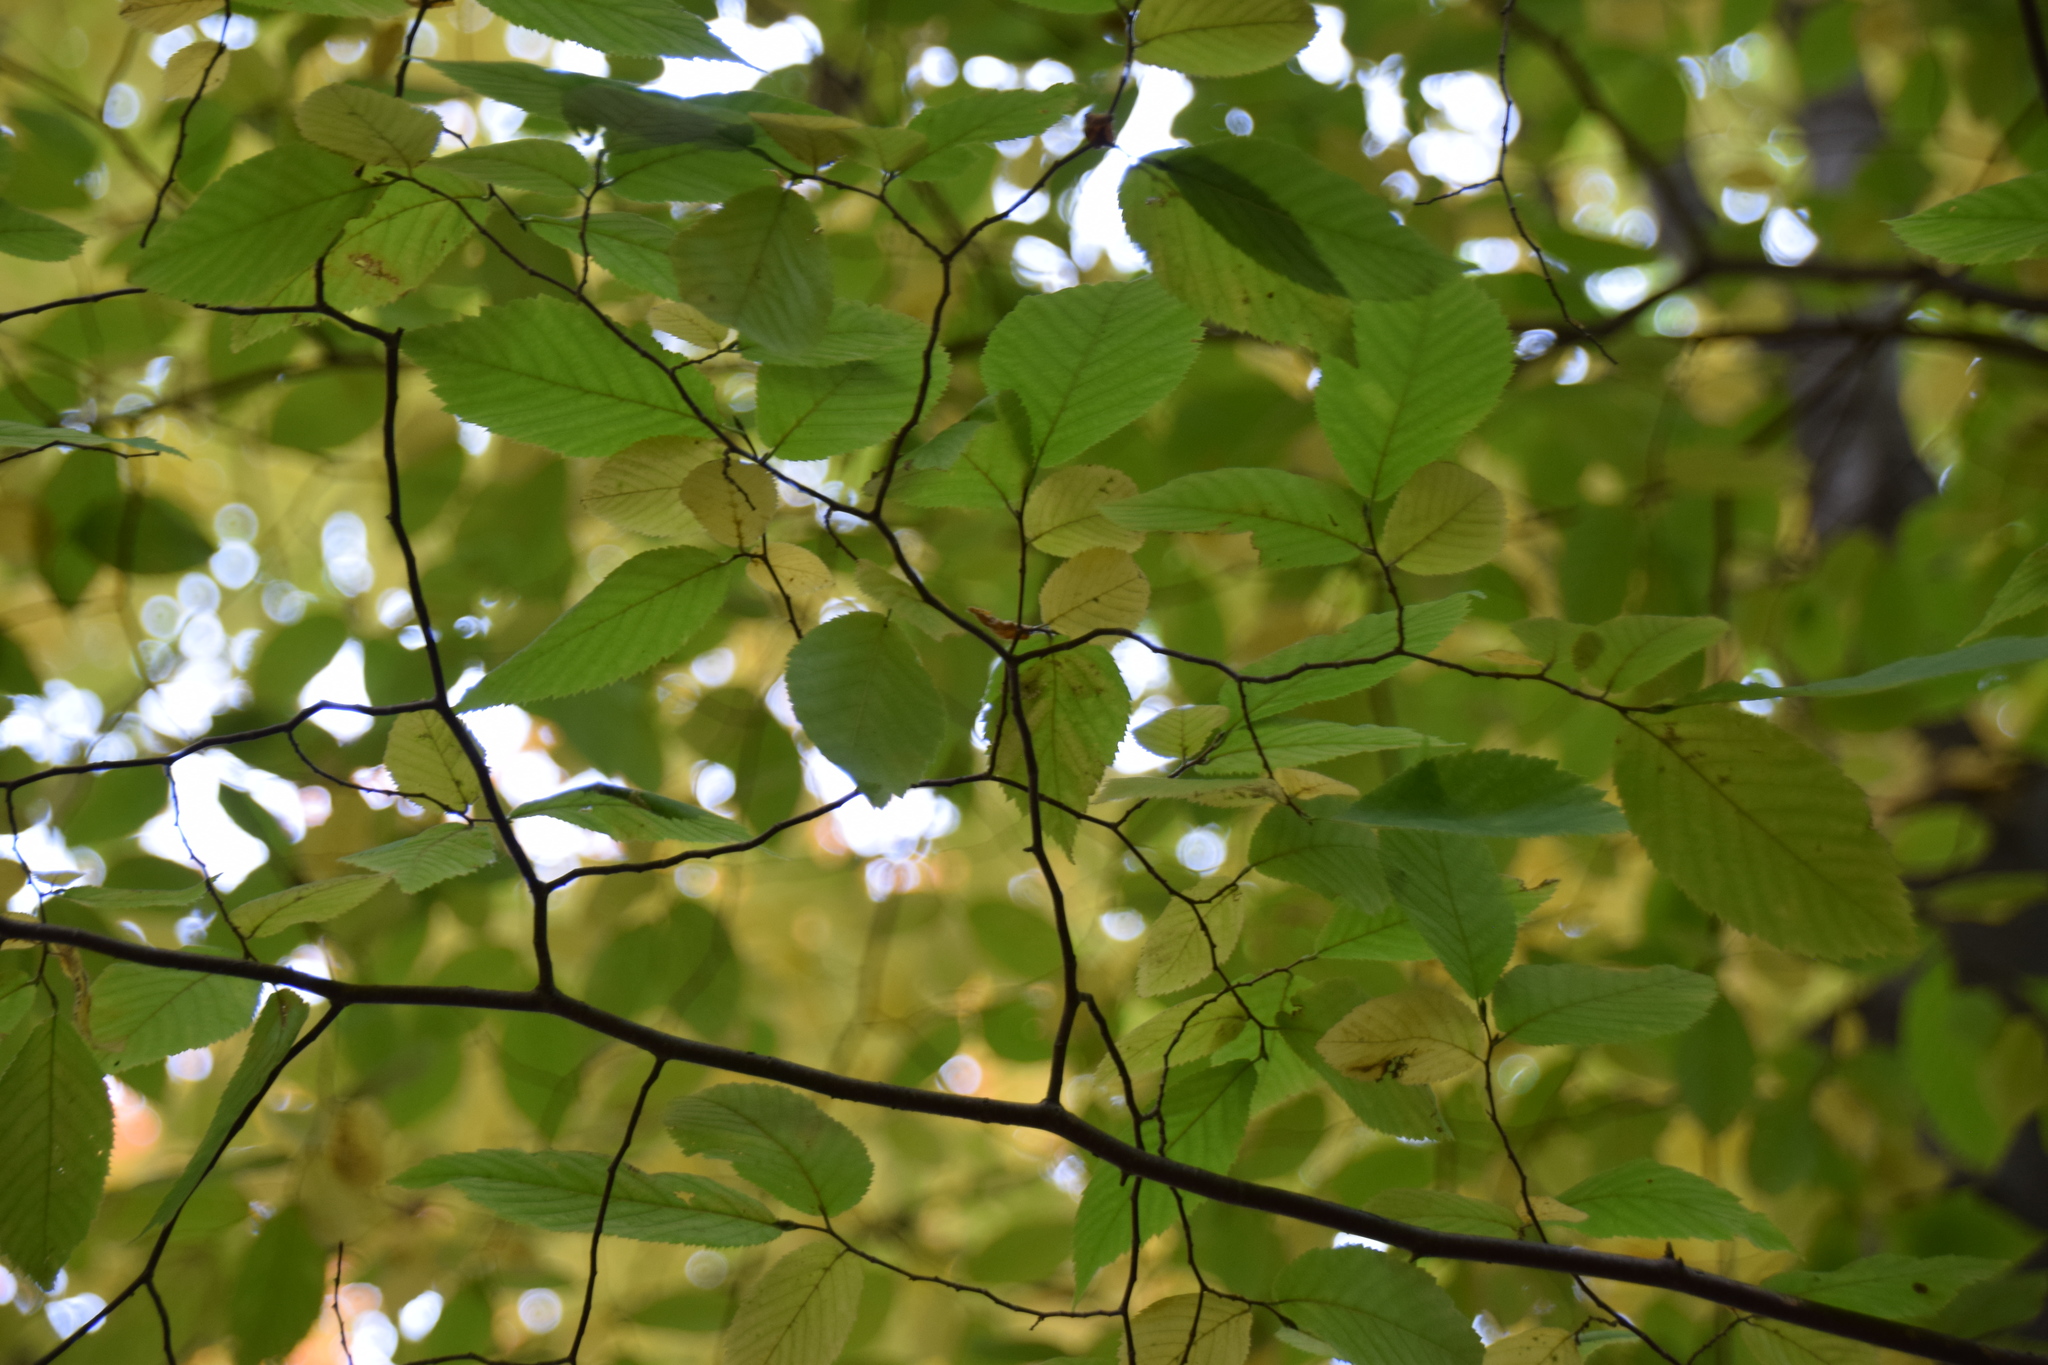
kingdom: Plantae
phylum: Tracheophyta
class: Magnoliopsida
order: Fagales
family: Betulaceae
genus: Ostrya
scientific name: Ostrya virginiana
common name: Ironwood
